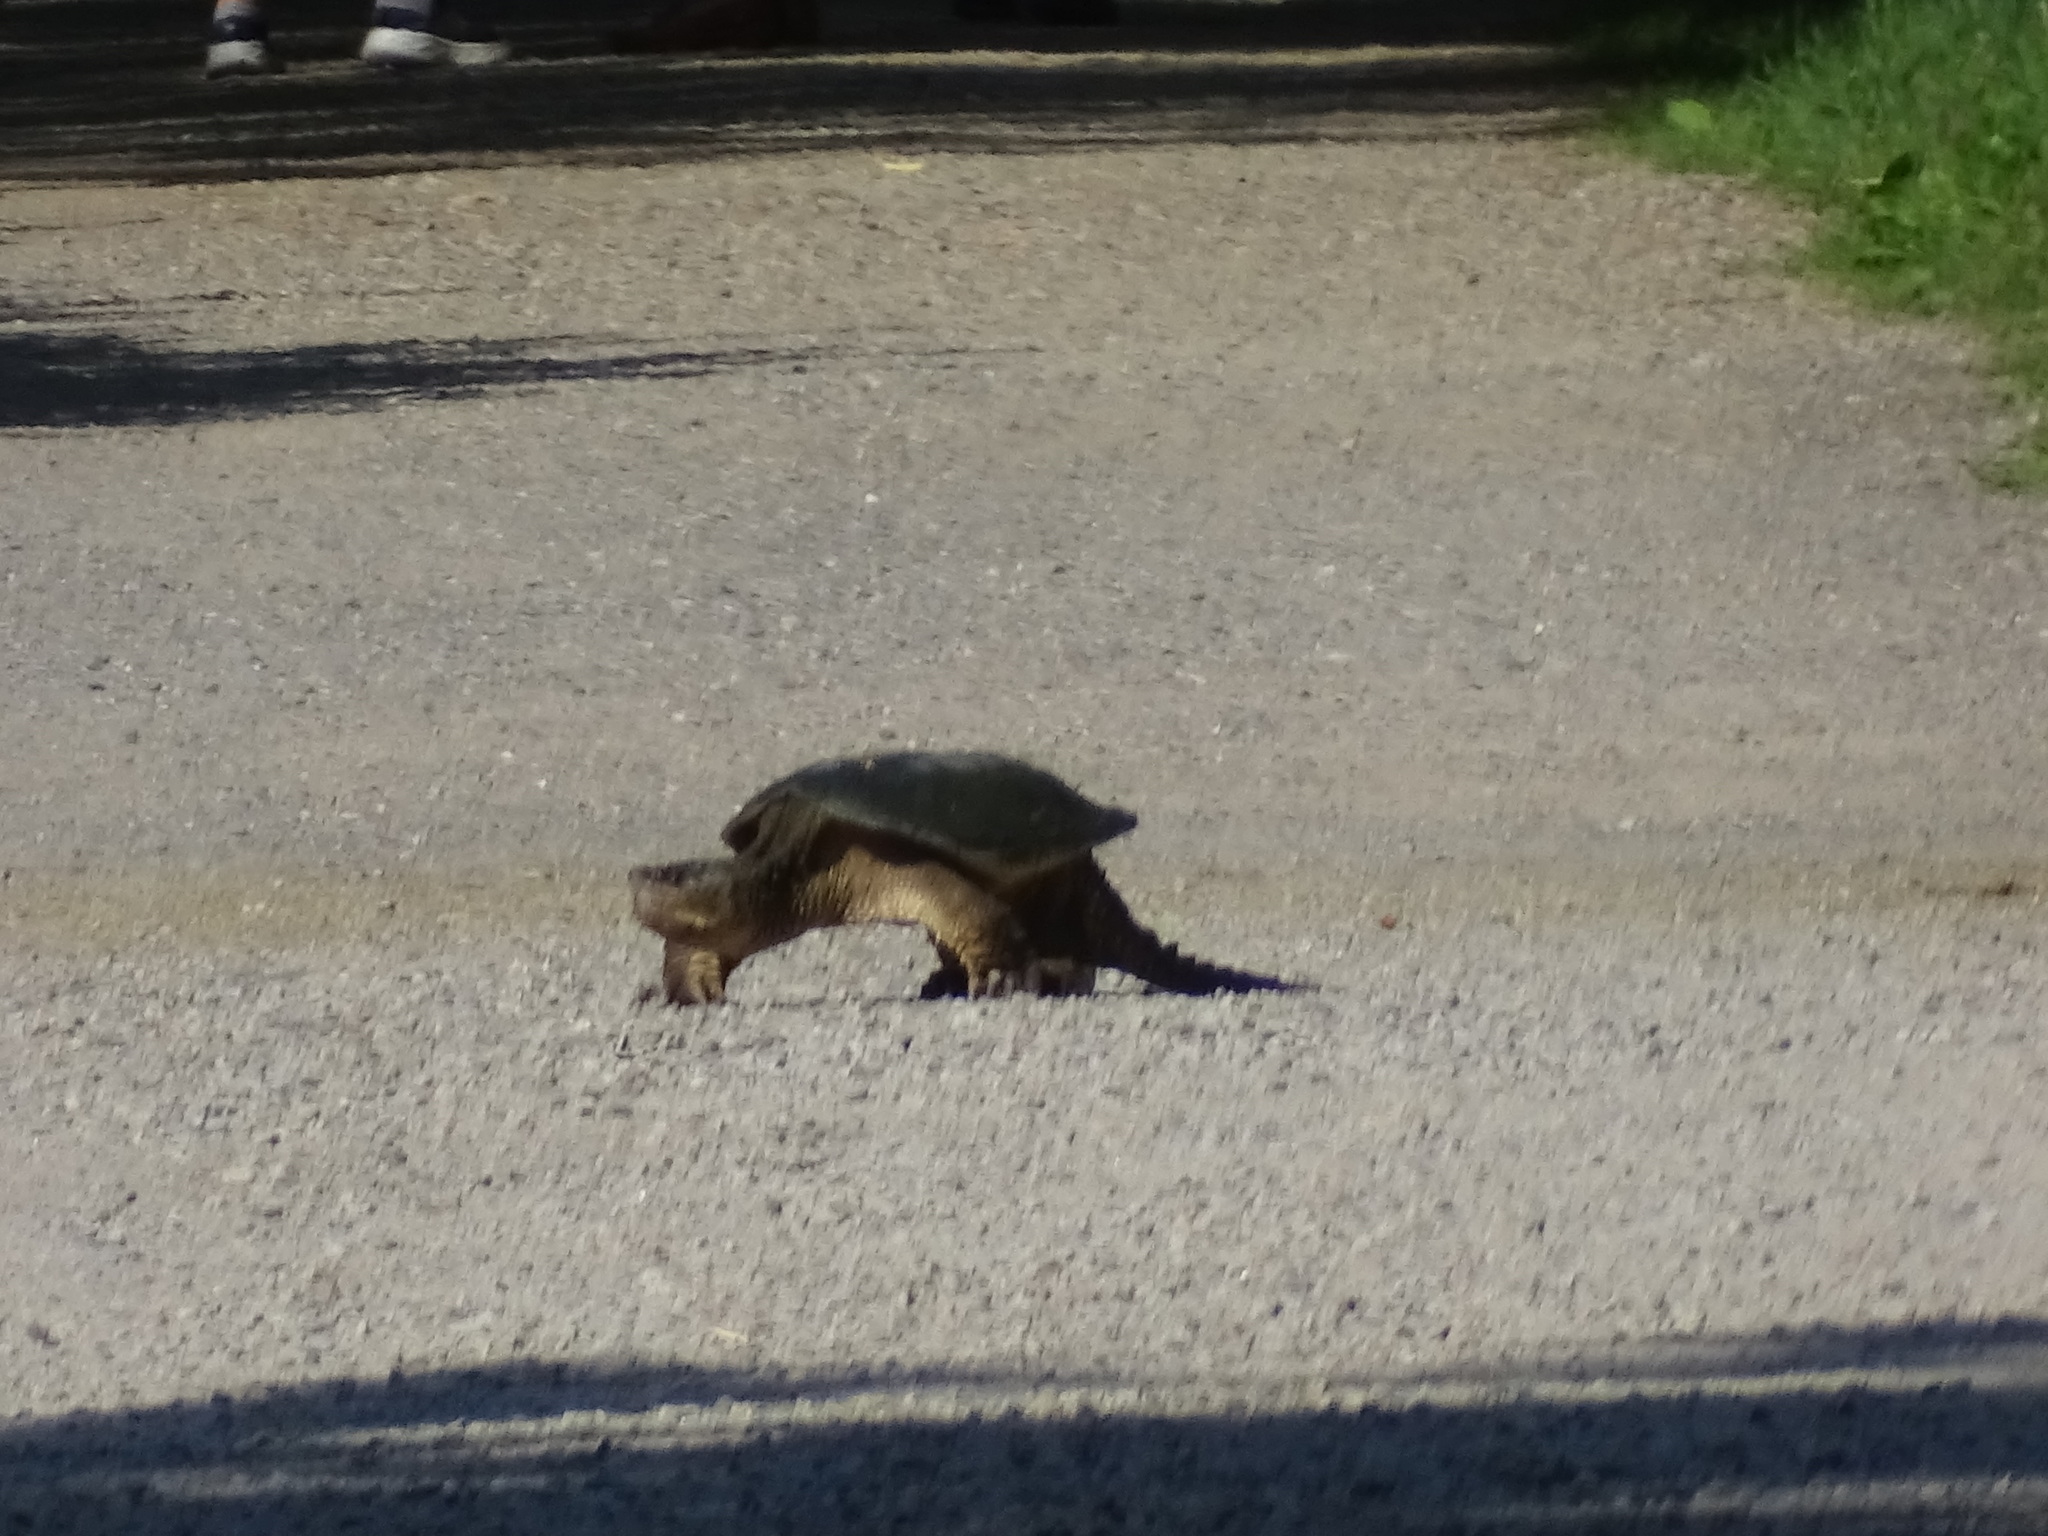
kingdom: Animalia
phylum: Chordata
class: Testudines
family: Chelydridae
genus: Chelydra
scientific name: Chelydra serpentina
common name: Common snapping turtle
